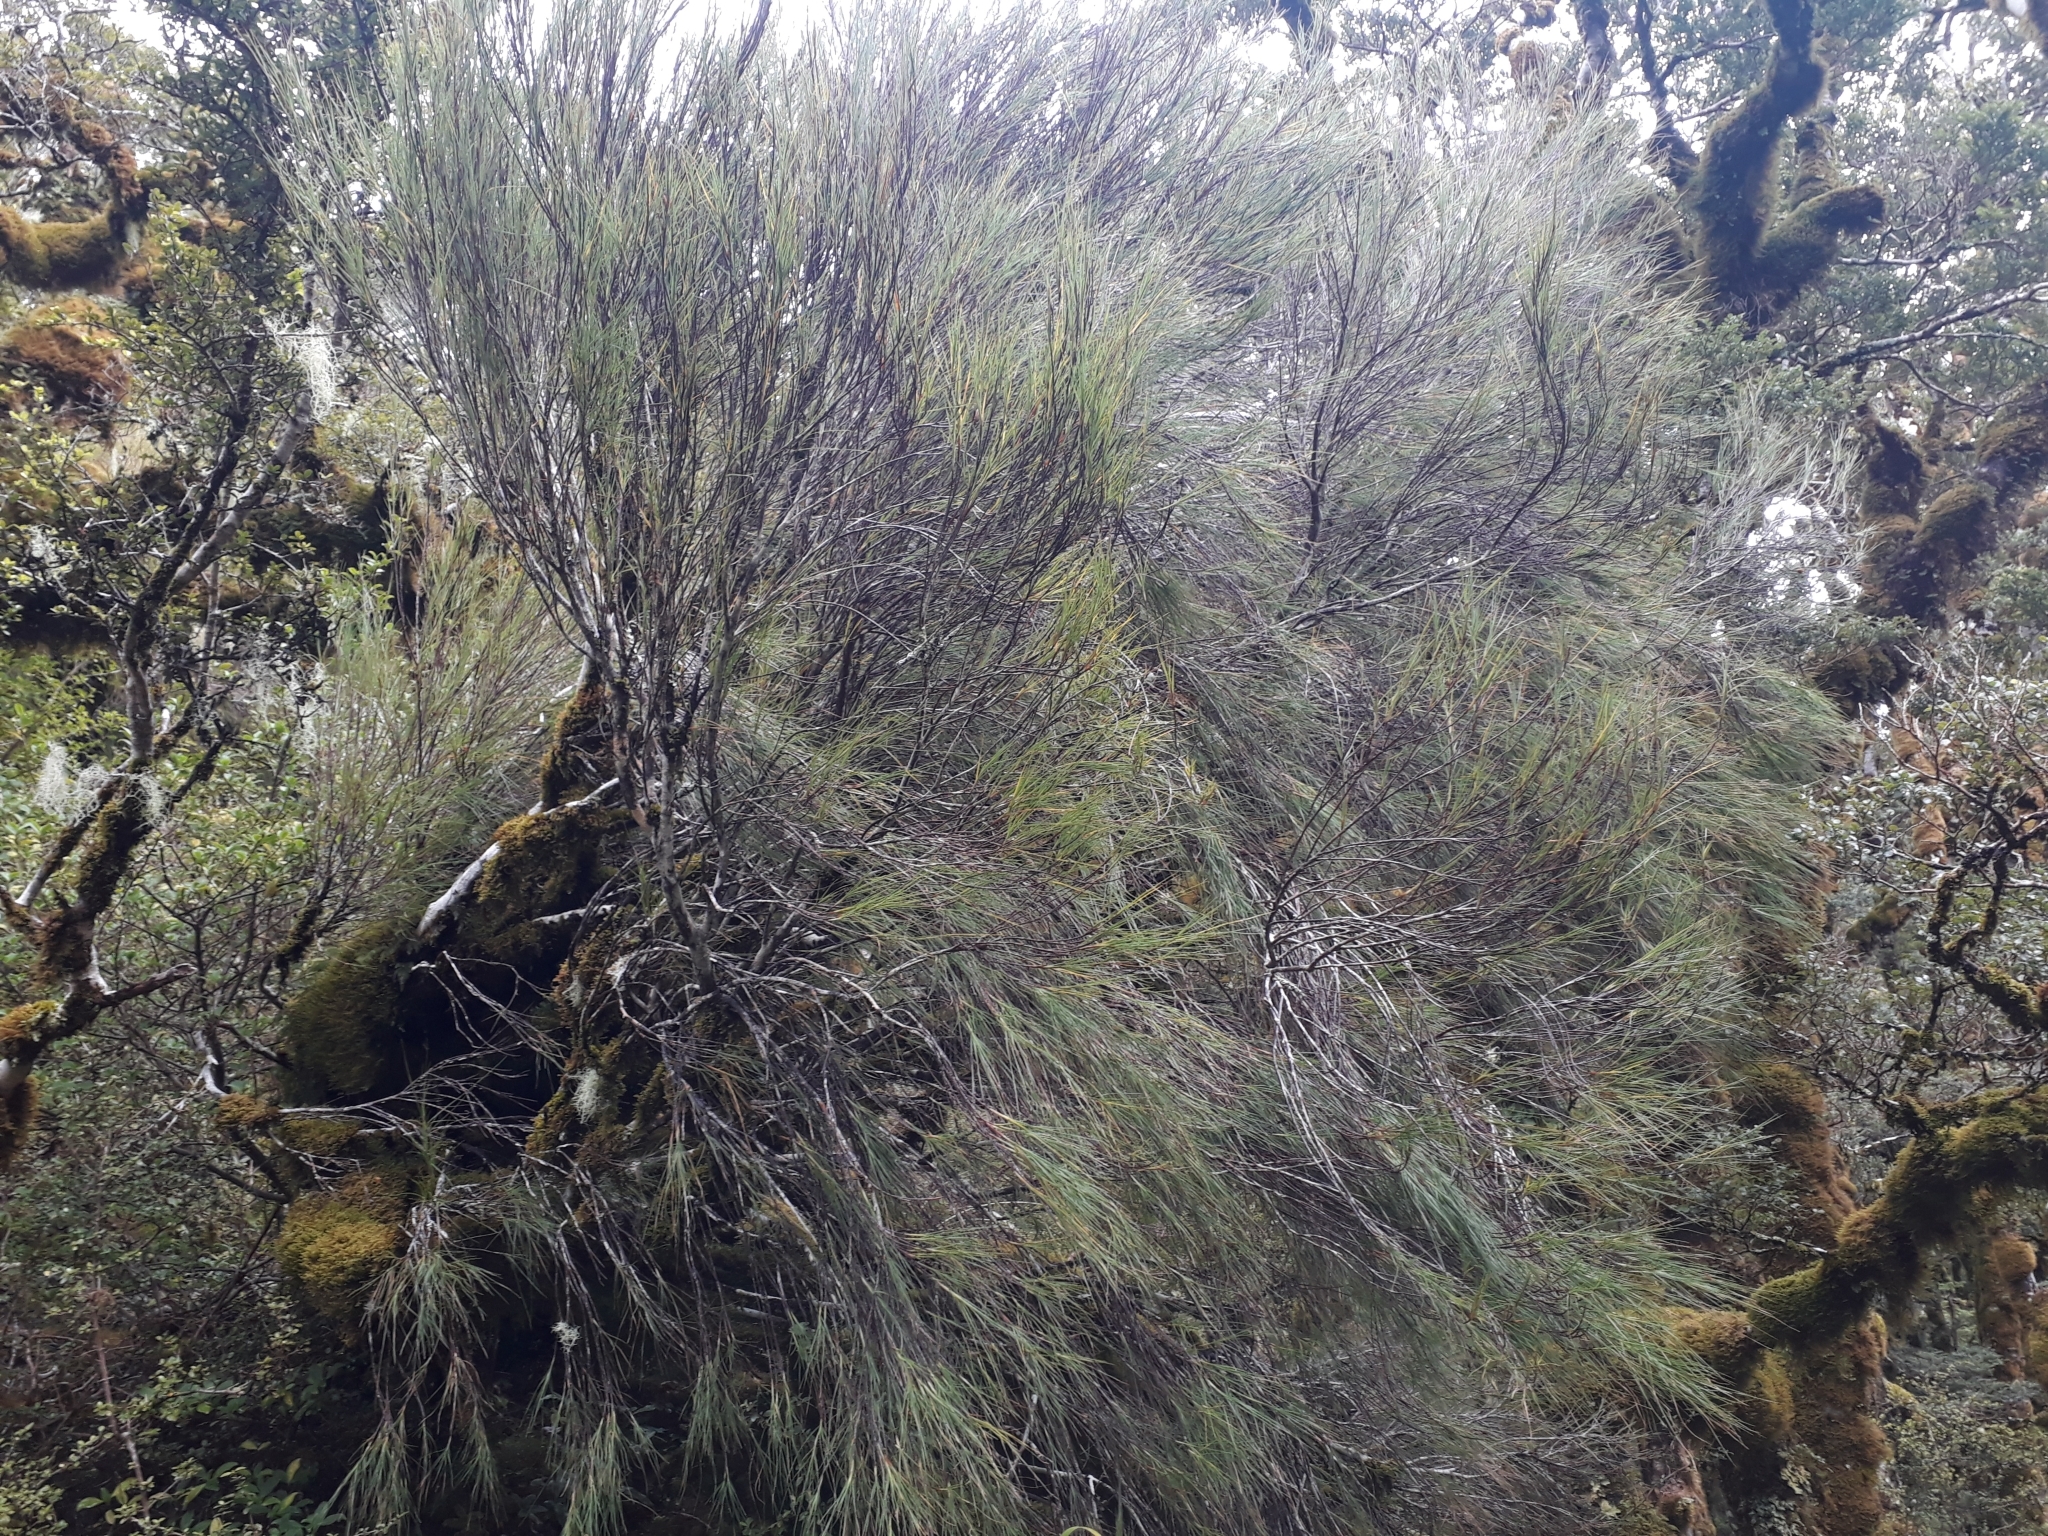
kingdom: Plantae
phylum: Tracheophyta
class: Magnoliopsida
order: Ericales
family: Ericaceae
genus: Dracophyllum
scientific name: Dracophyllum filifolium
